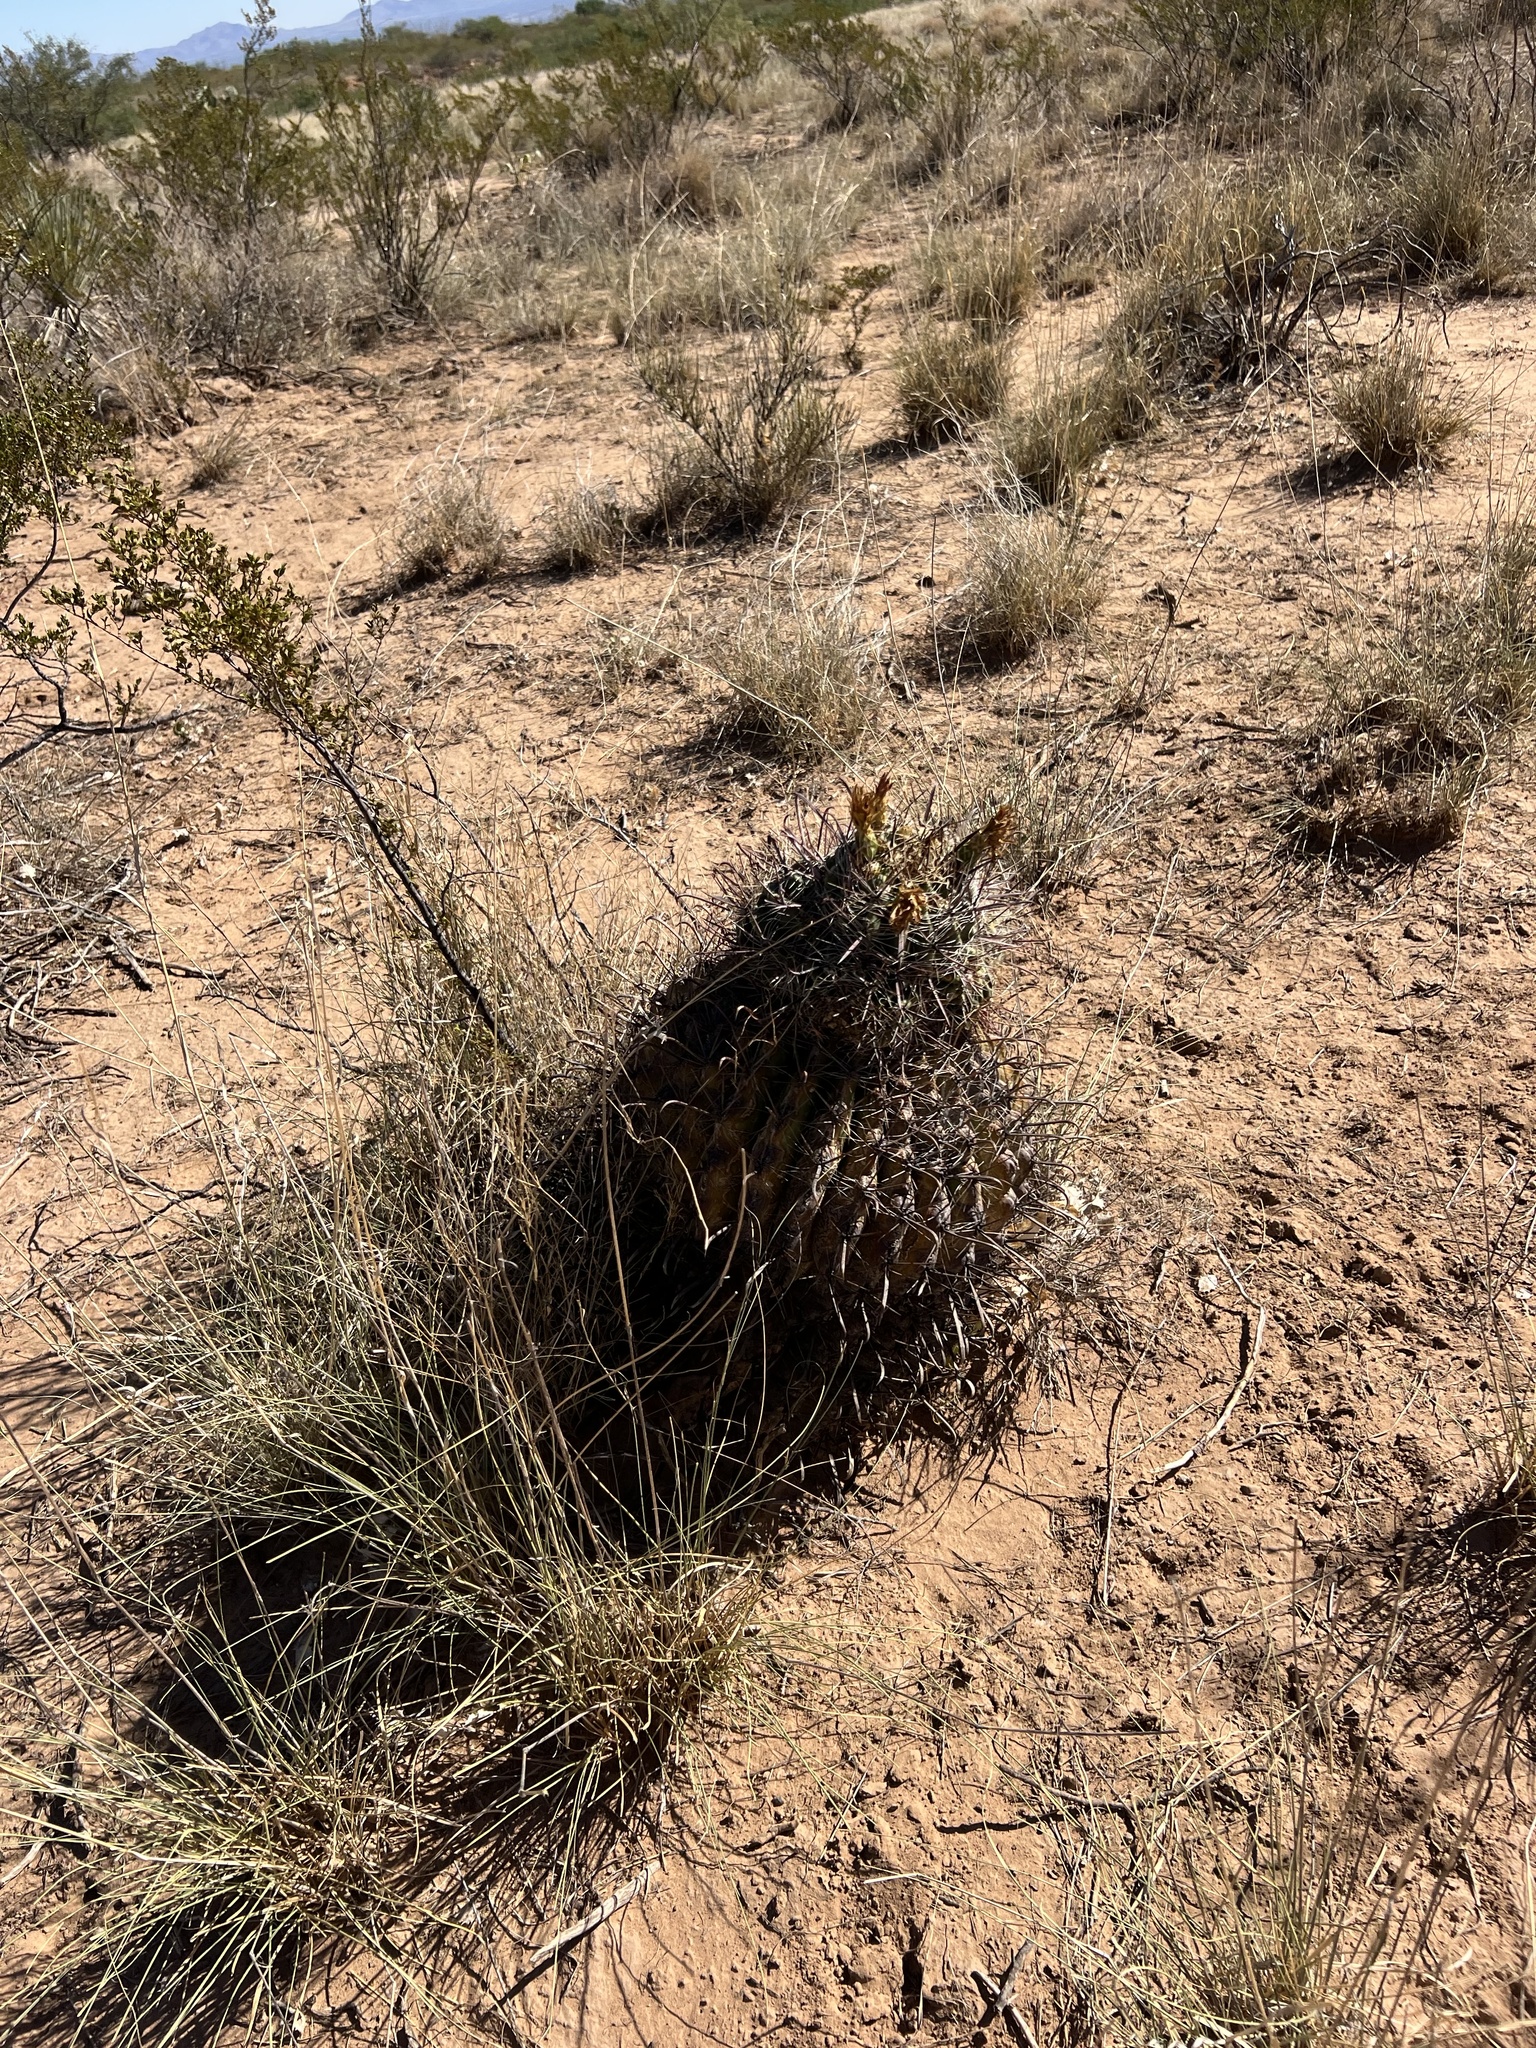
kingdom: Plantae
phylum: Tracheophyta
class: Magnoliopsida
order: Caryophyllales
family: Cactaceae
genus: Ferocactus
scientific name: Ferocactus wislizeni
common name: Candy barrel cactus
